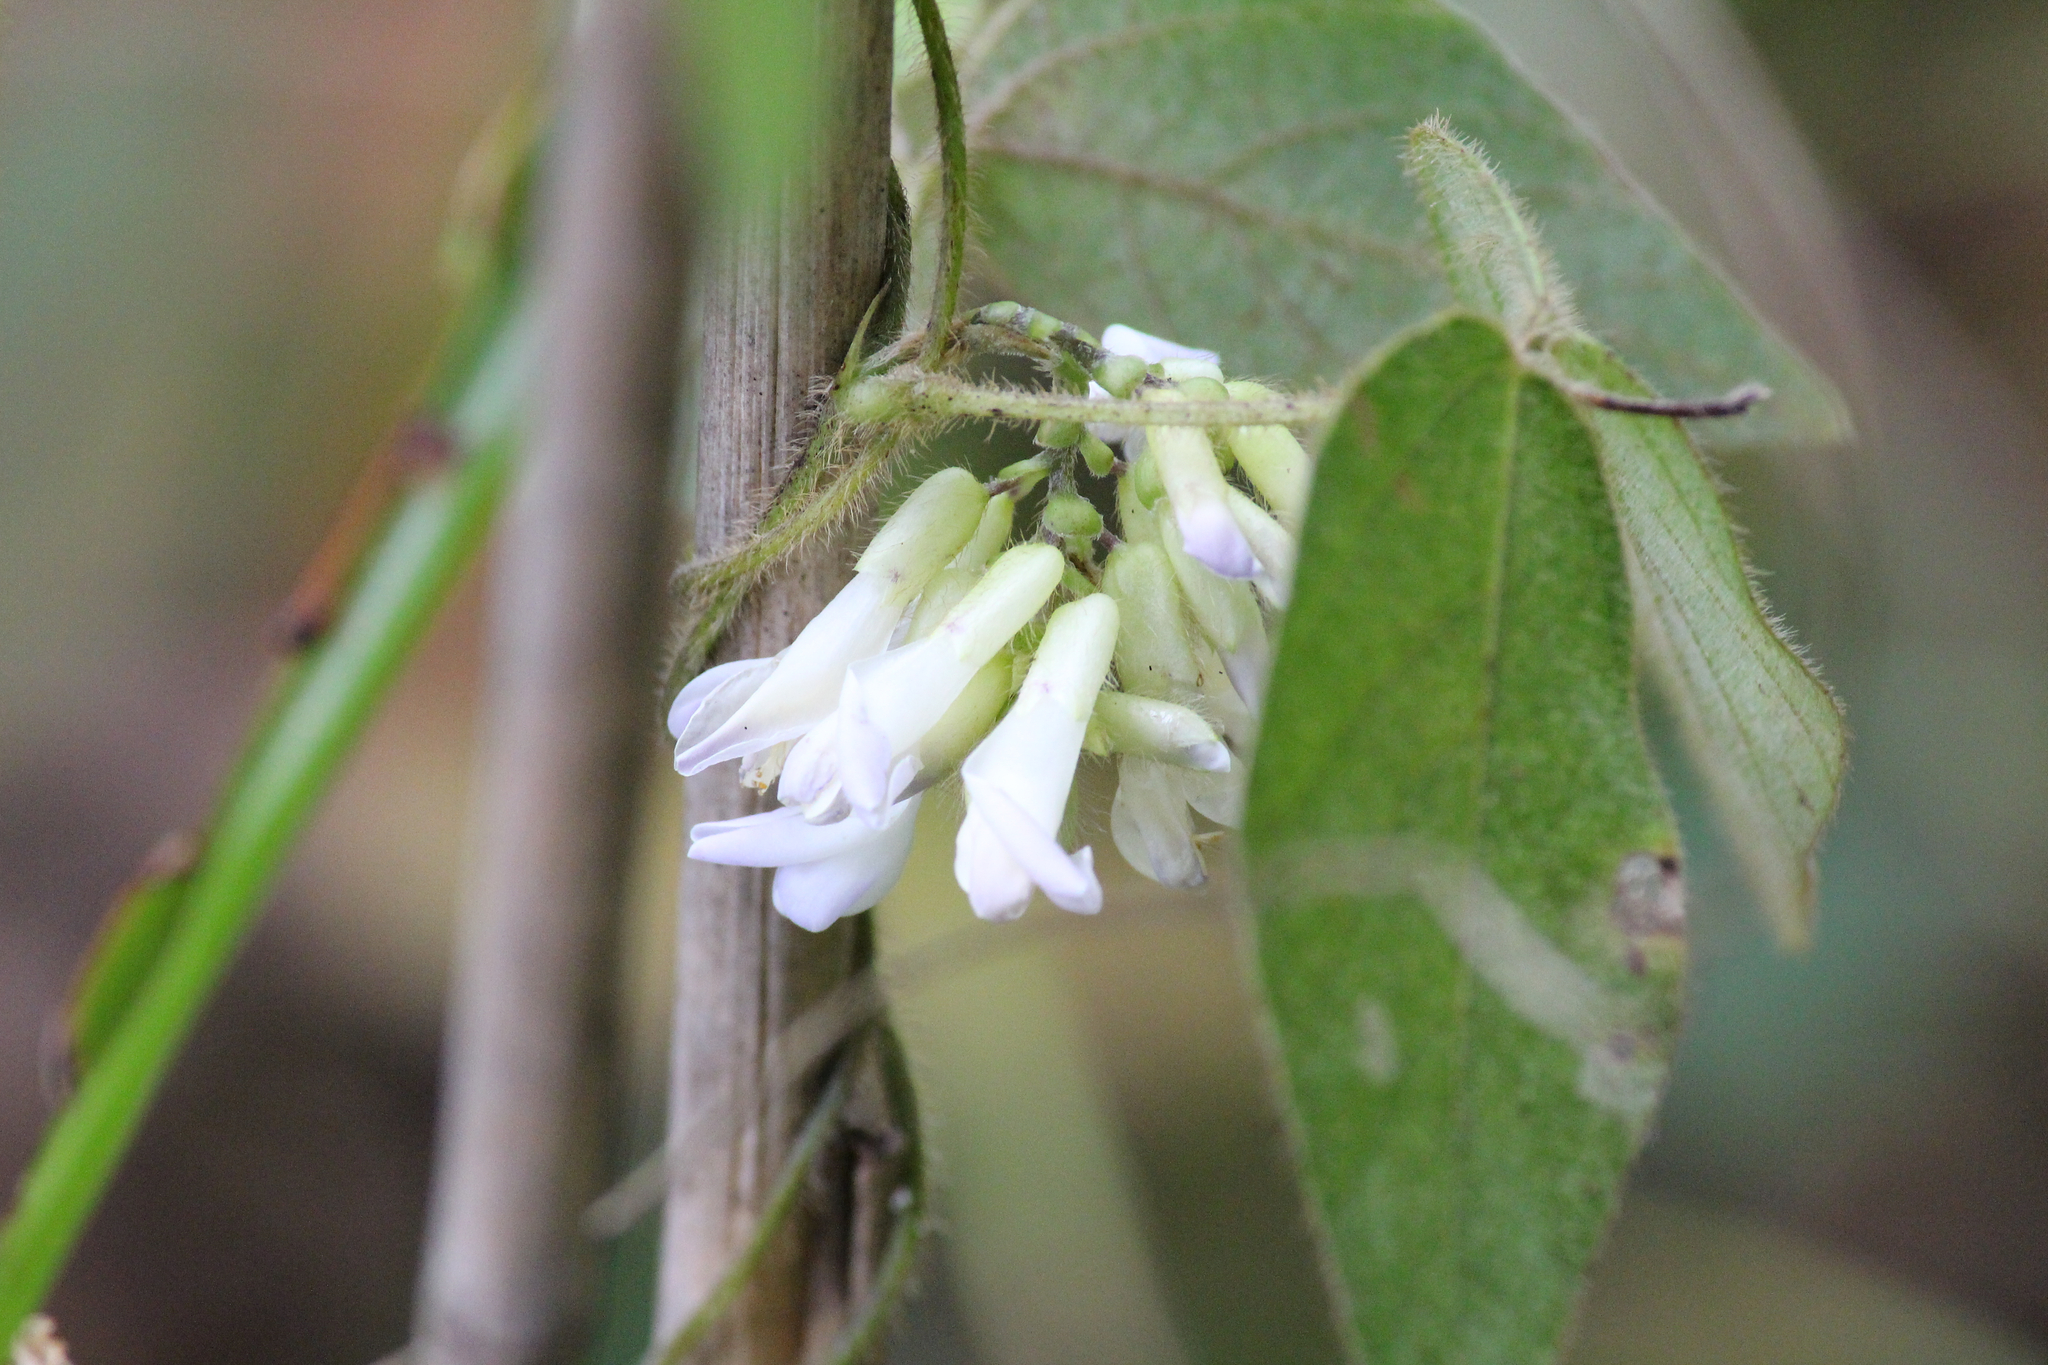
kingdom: Plantae
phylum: Tracheophyta
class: Magnoliopsida
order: Fabales
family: Fabaceae
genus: Amphicarpaea
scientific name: Amphicarpaea bracteata
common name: American hog peanut
